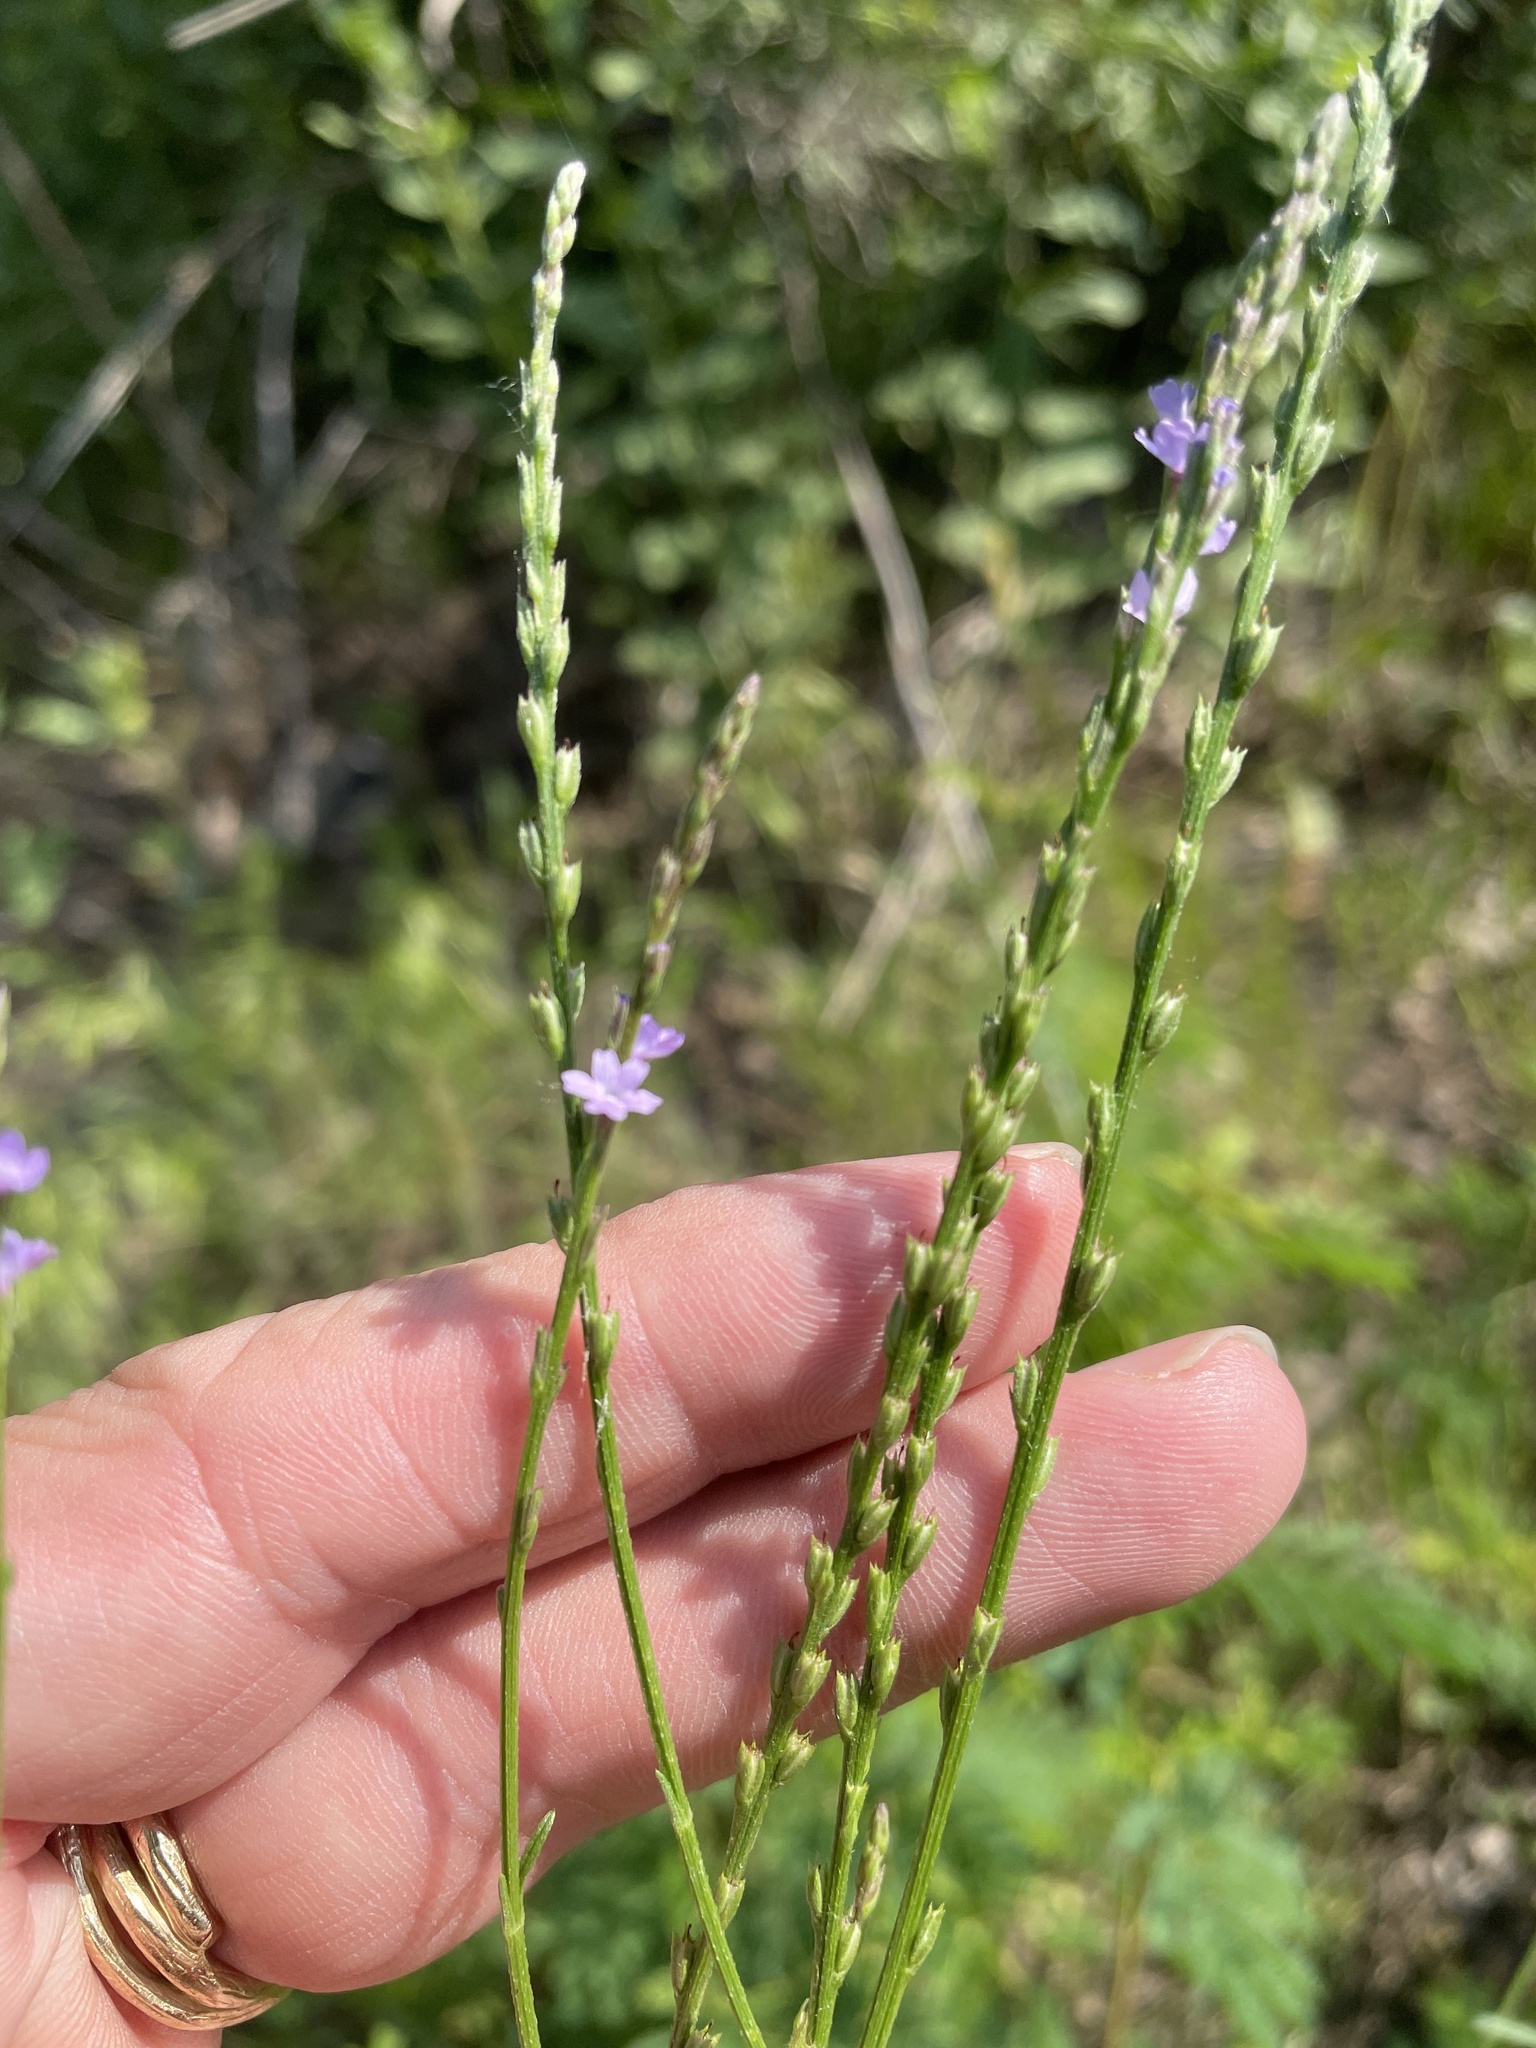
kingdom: Plantae
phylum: Tracheophyta
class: Magnoliopsida
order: Lamiales
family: Verbenaceae
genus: Verbena
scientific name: Verbena halei
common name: Texas vervain
